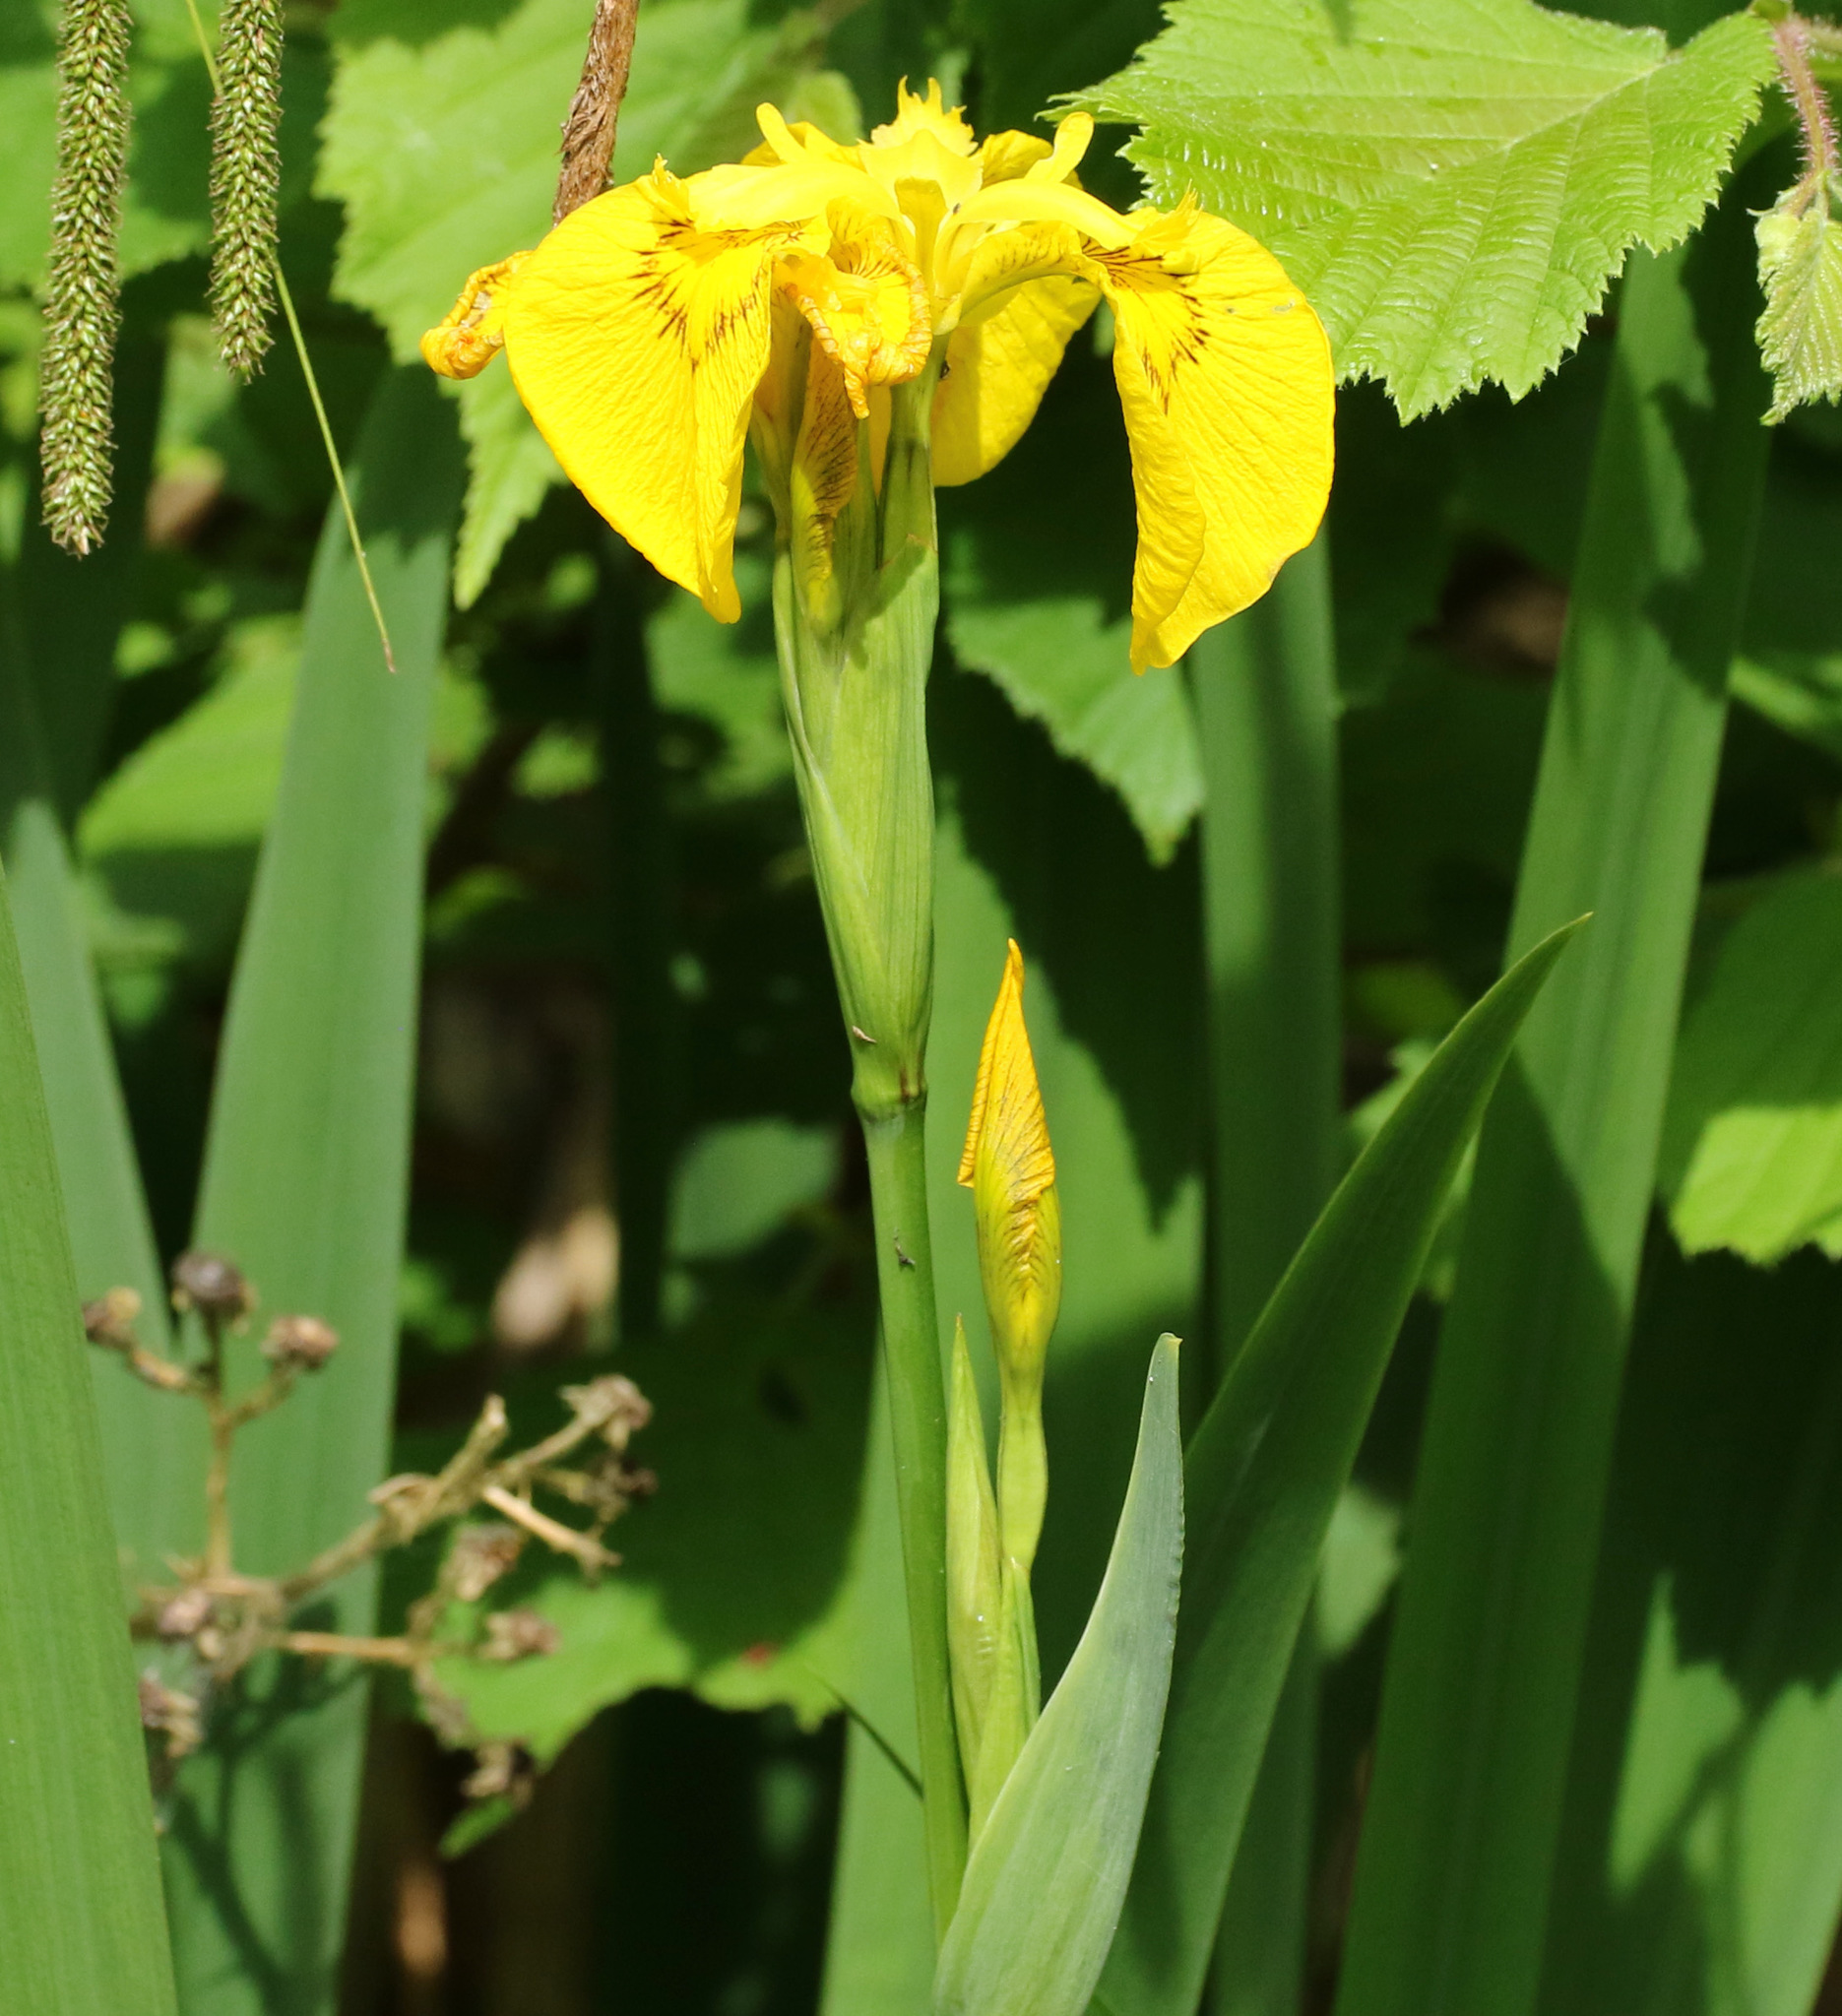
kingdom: Plantae
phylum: Tracheophyta
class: Liliopsida
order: Asparagales
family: Iridaceae
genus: Iris
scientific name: Iris pseudacorus
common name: Yellow flag
